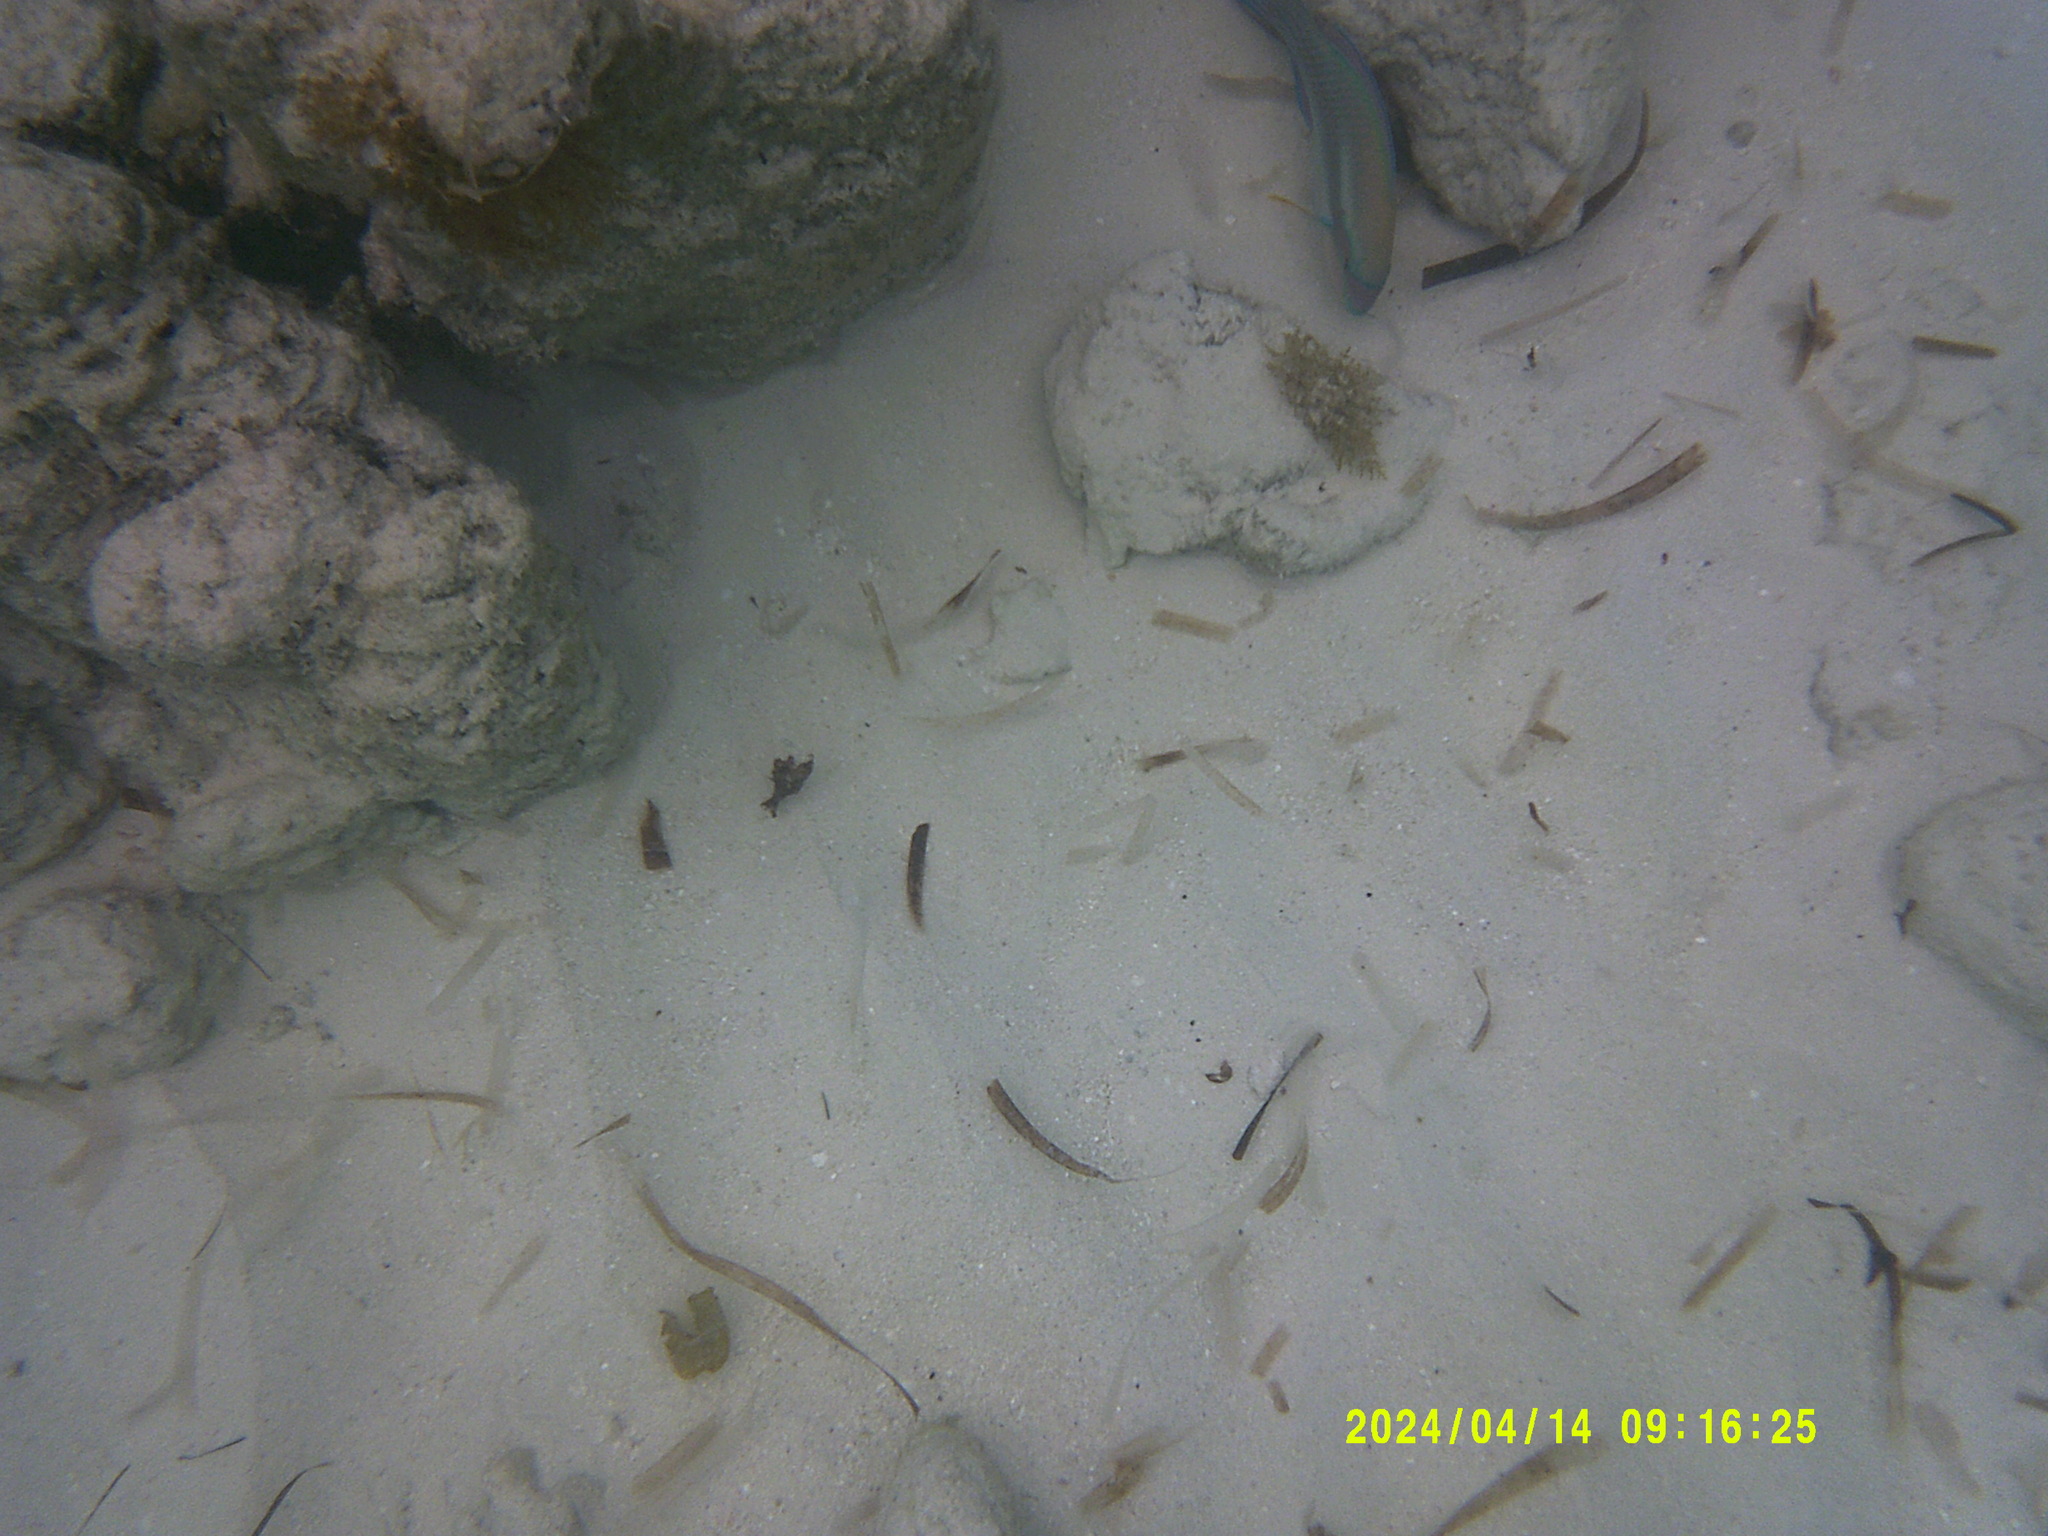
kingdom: Animalia
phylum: Chordata
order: Perciformes
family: Scaridae
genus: Scarus
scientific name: Scarus iseri
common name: Striped parrotfish
